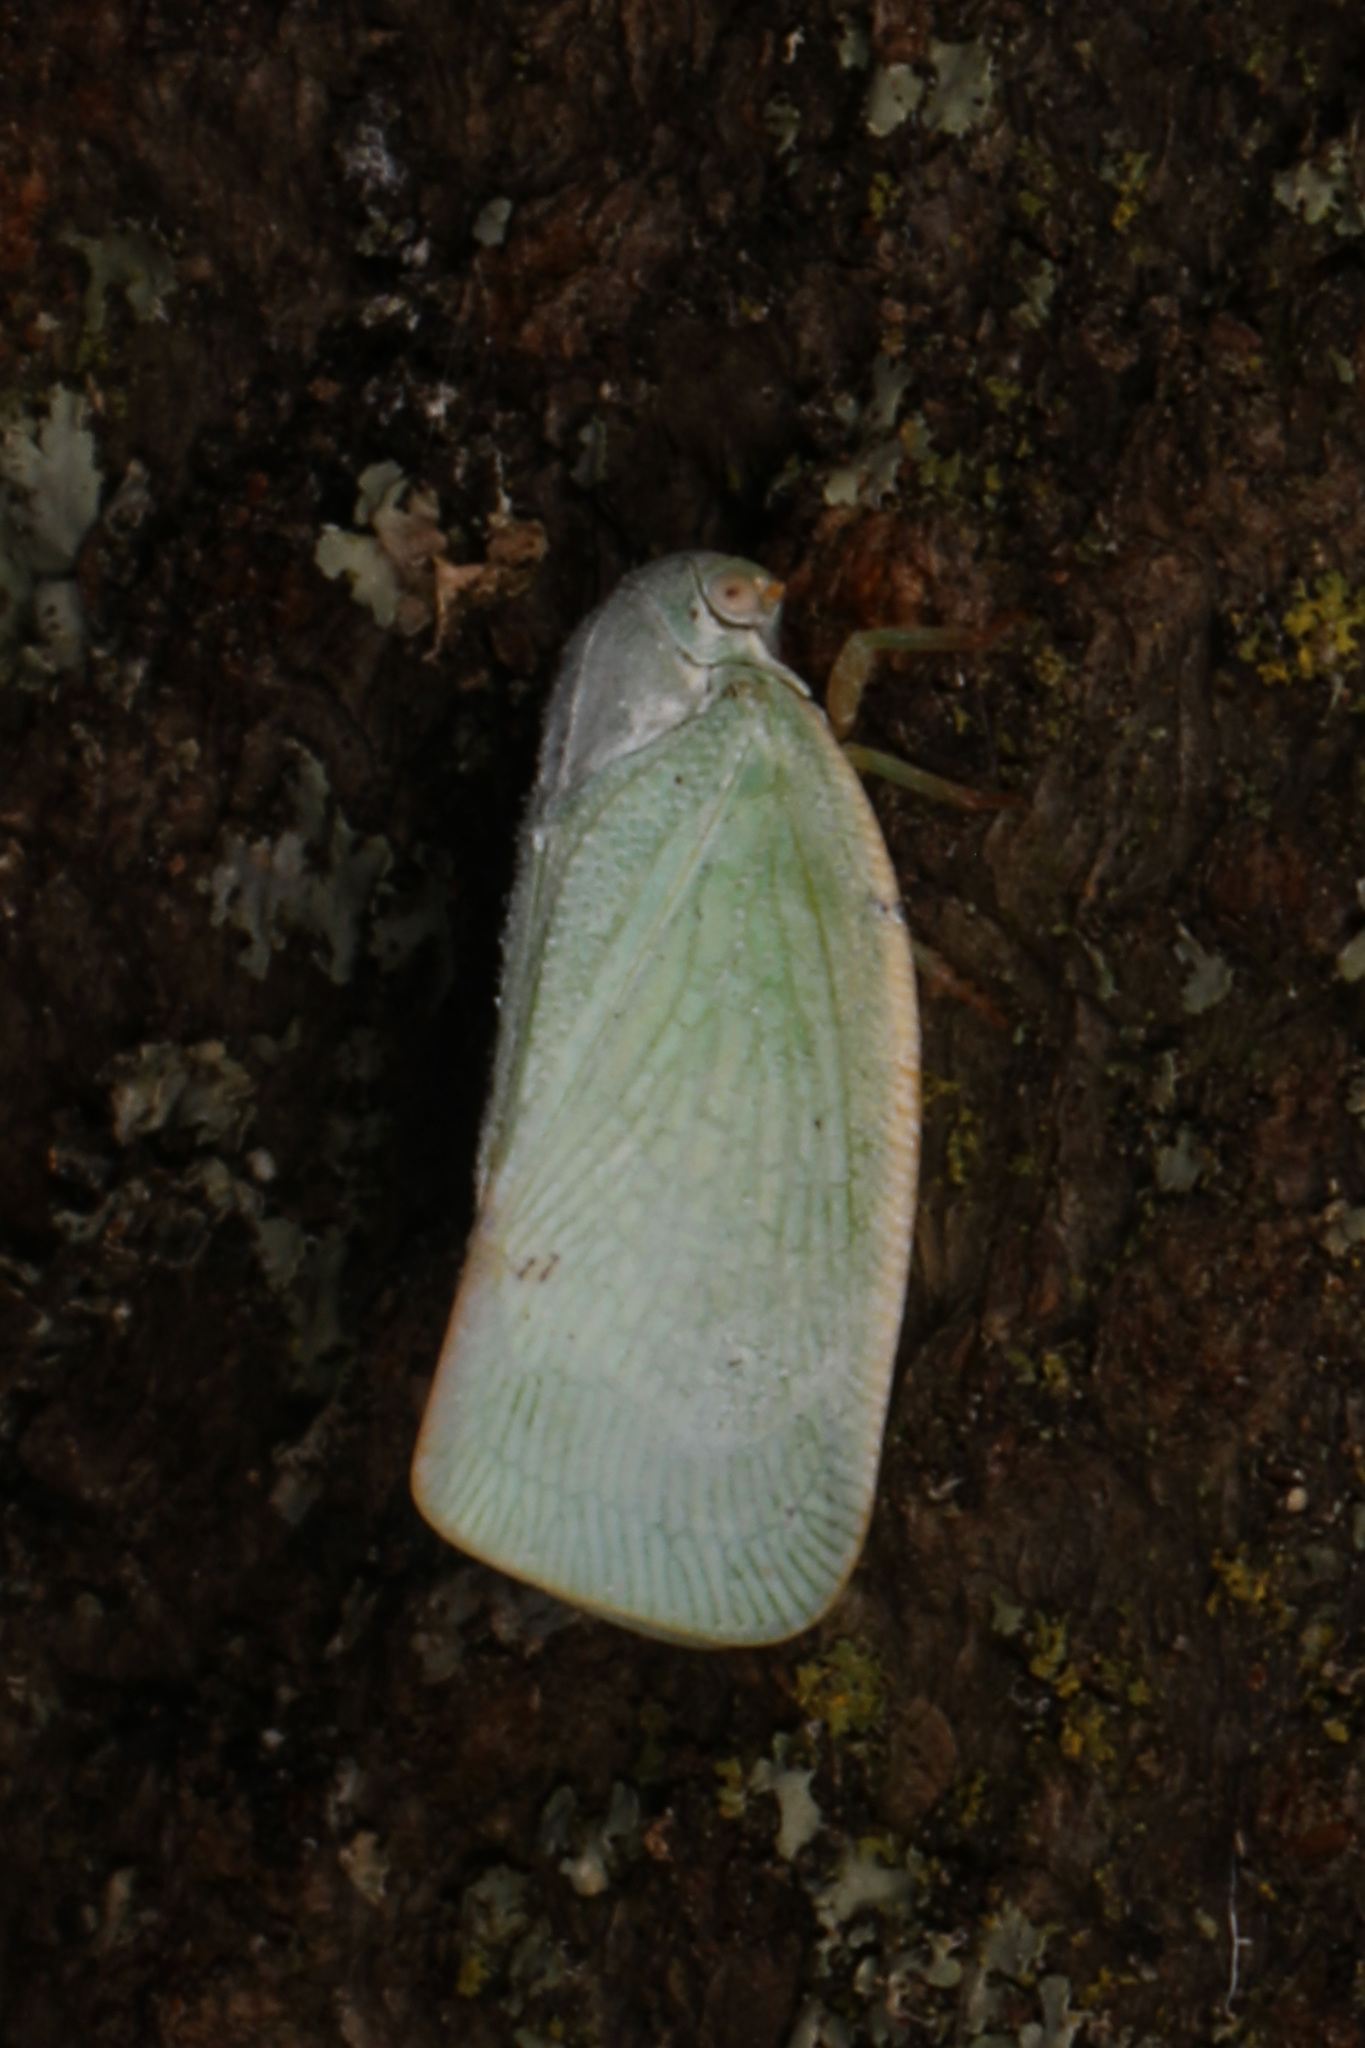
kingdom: Animalia
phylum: Arthropoda
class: Insecta
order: Hemiptera
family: Flatidae
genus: Flatormenis
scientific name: Flatormenis proxima
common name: Northern flatid planthopper
